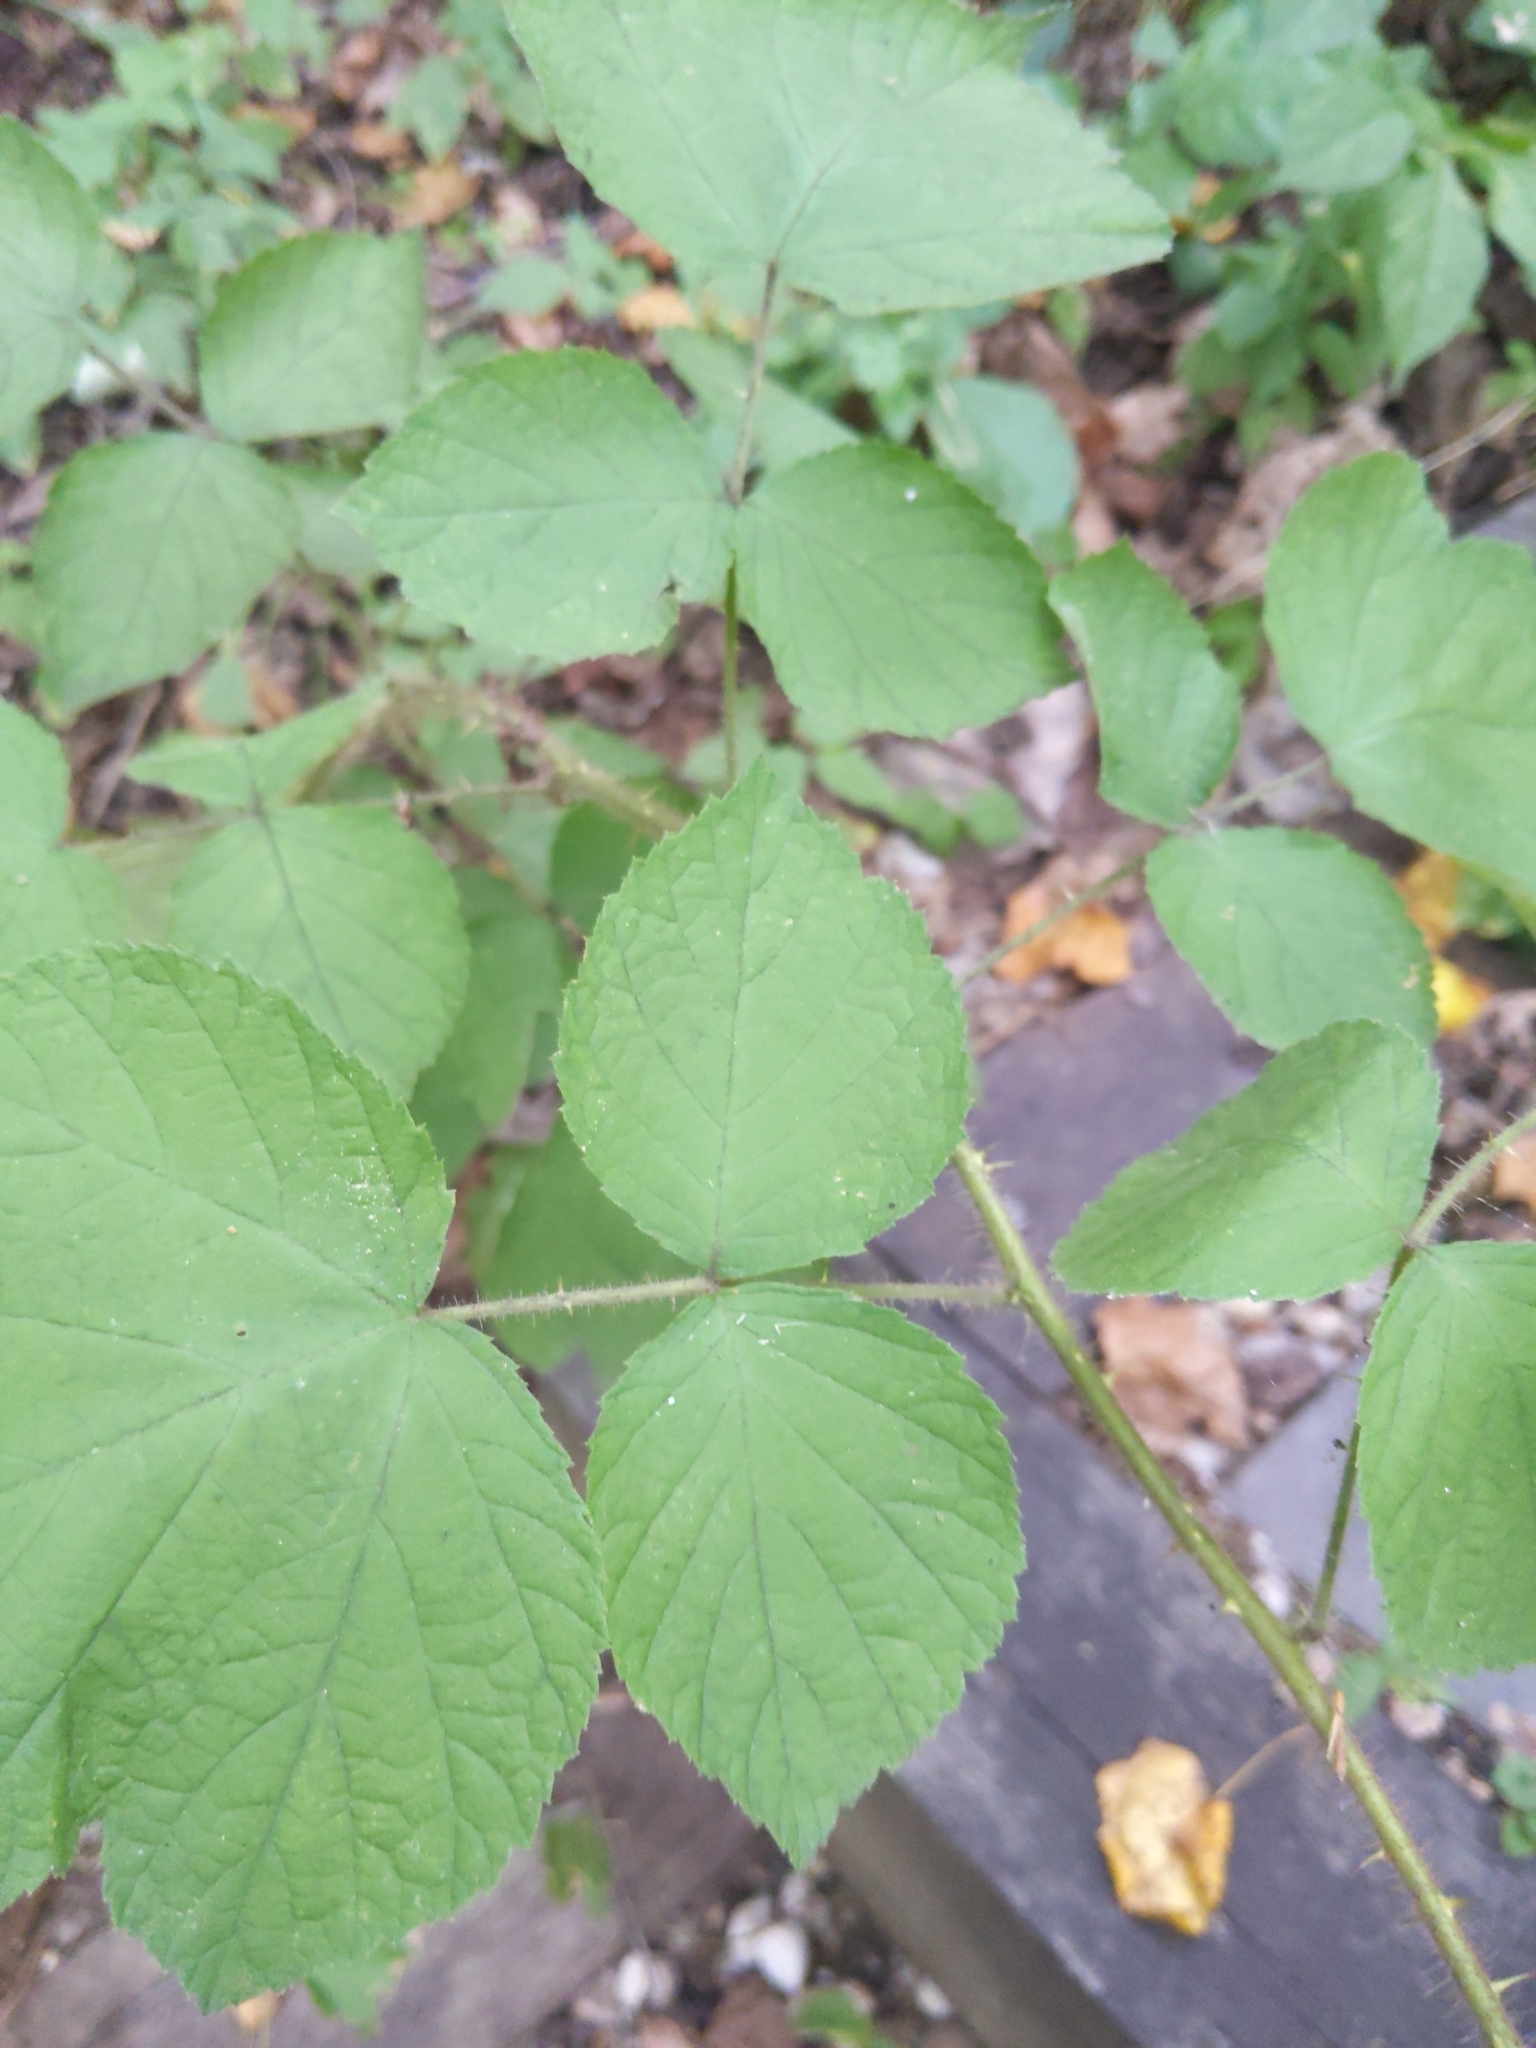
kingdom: Plantae
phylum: Tracheophyta
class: Magnoliopsida
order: Rosales
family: Rosaceae
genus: Rubus
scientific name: Rubus phoenicolasius
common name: Japanese wineberry
